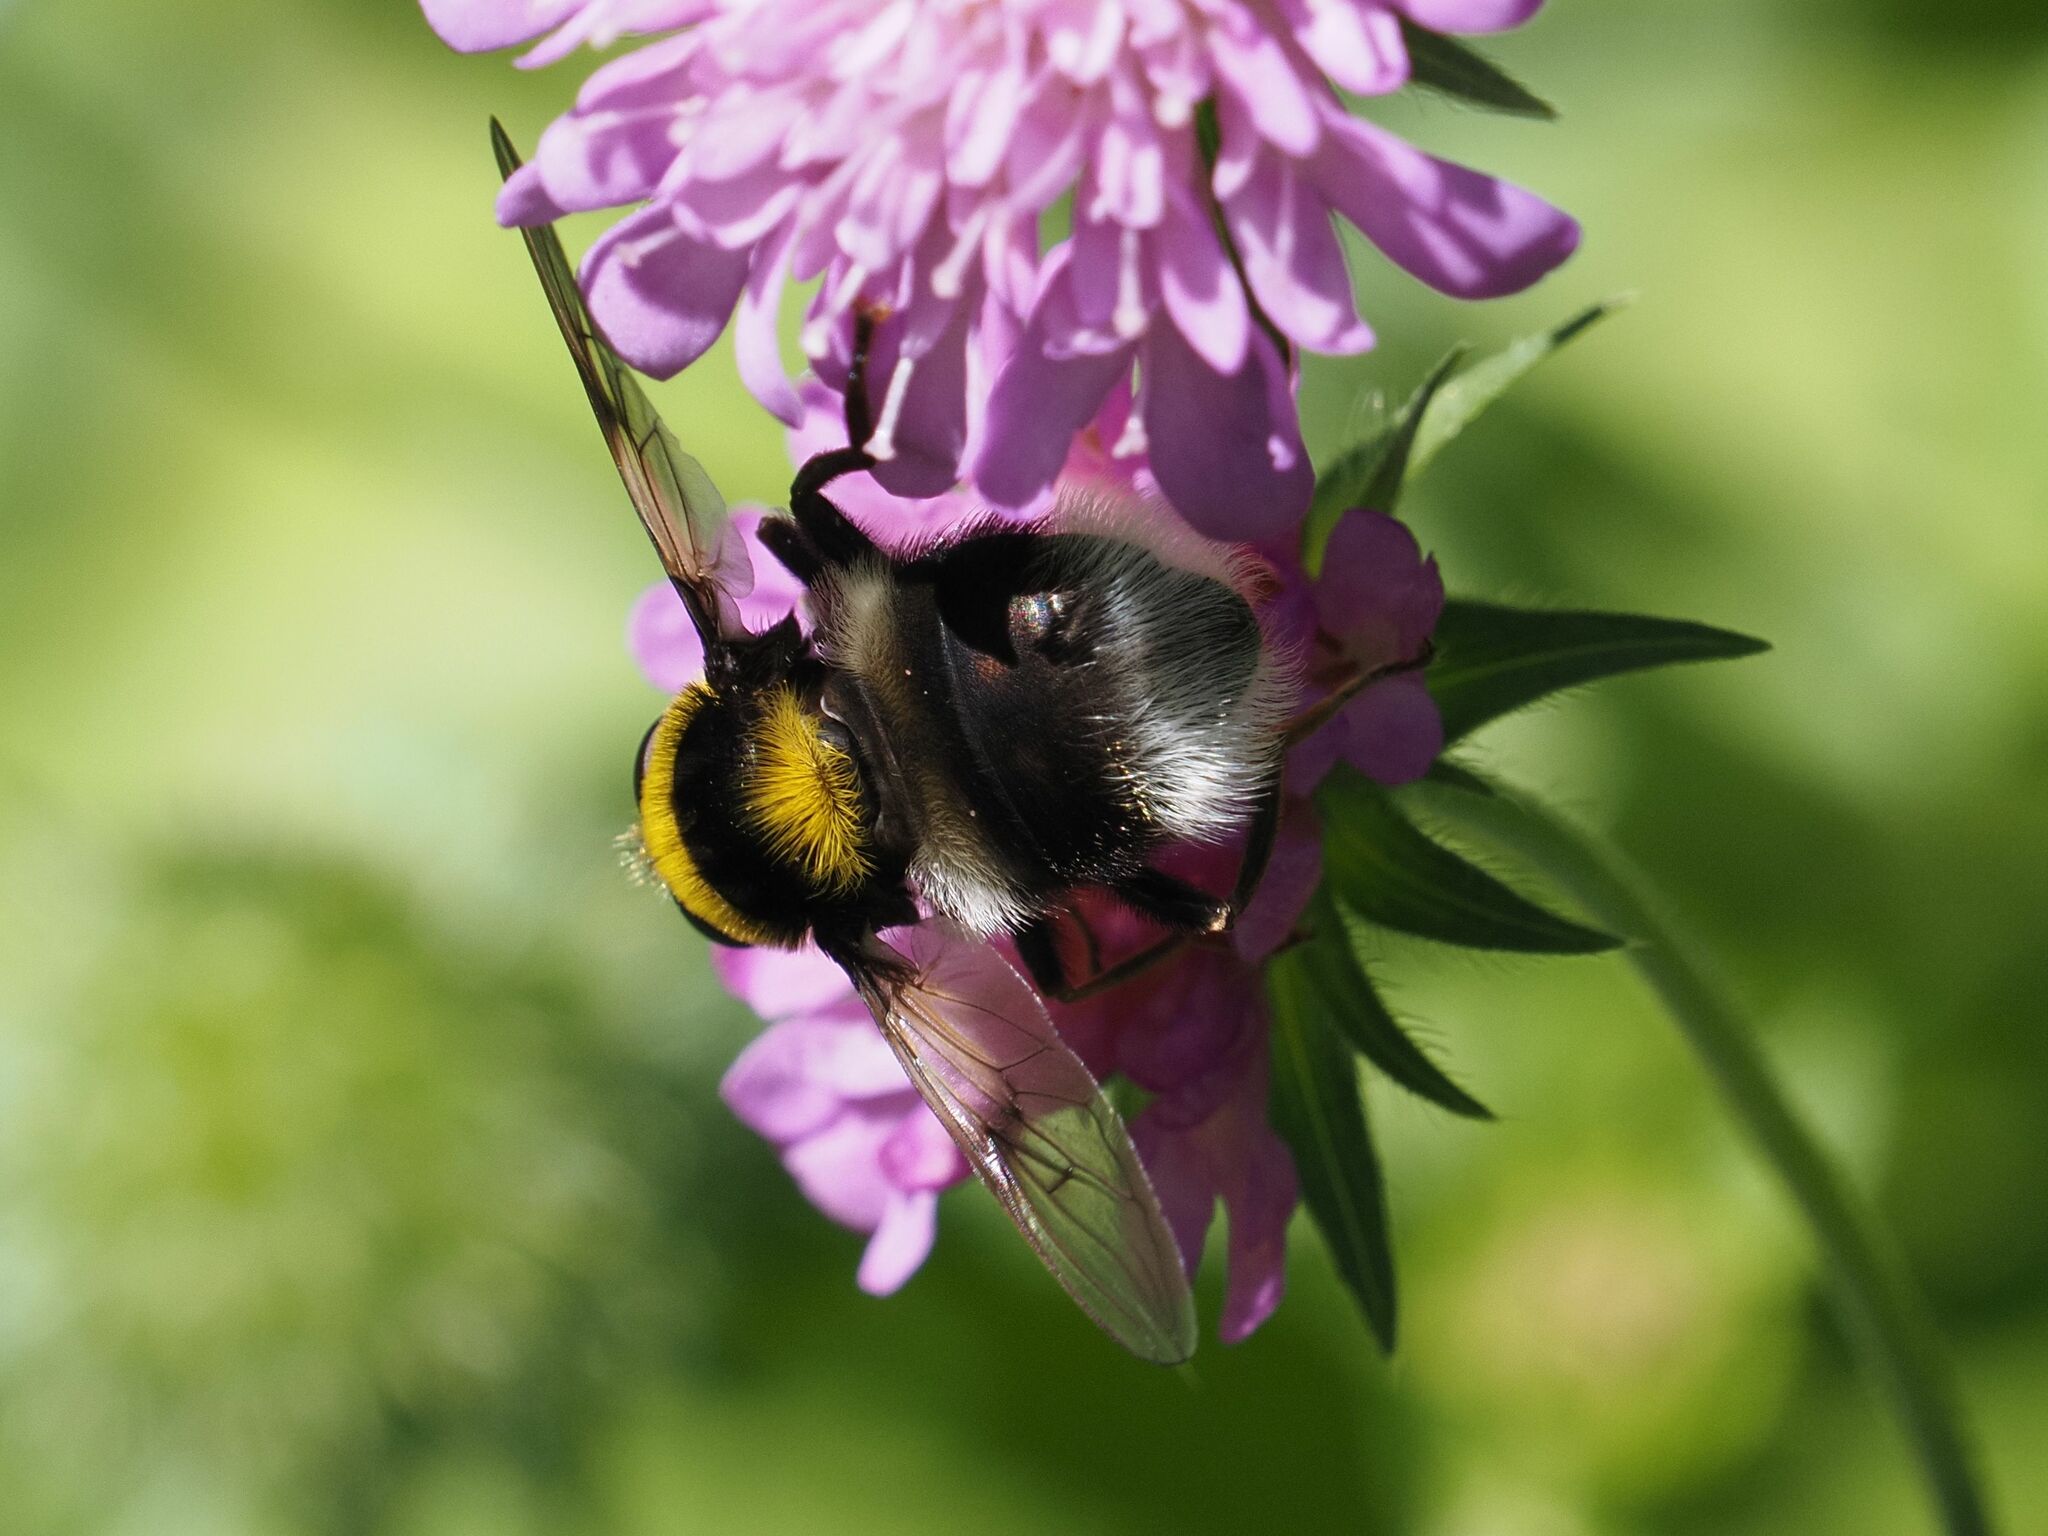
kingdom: Animalia
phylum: Arthropoda
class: Insecta
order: Diptera
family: Syrphidae
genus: Sericomyia
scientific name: Sericomyia bombiformis
